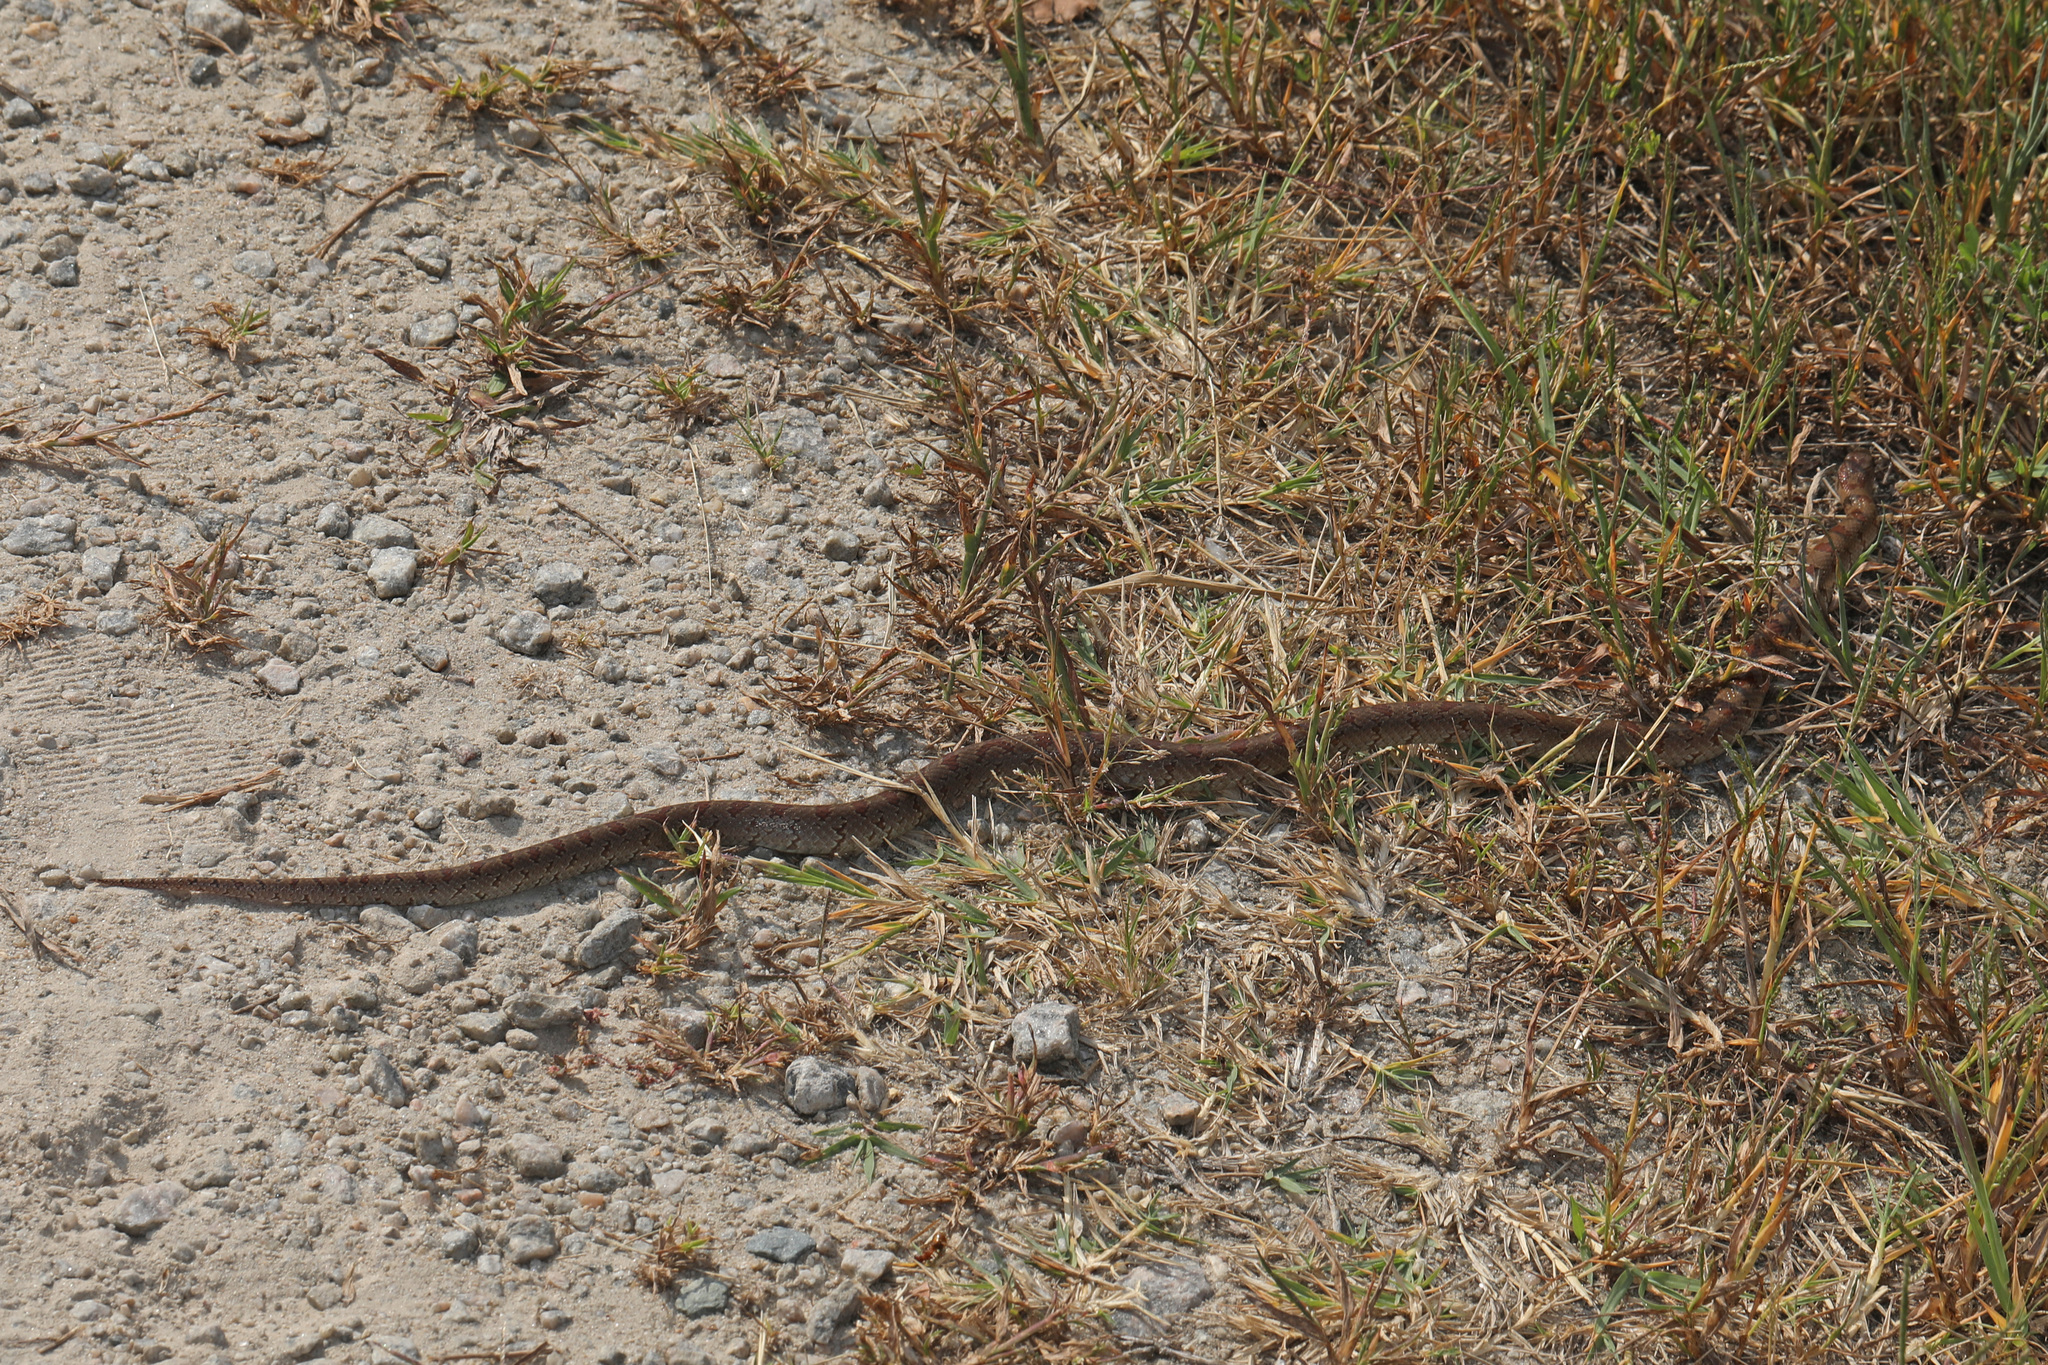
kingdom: Animalia
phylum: Chordata
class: Squamata
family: Colubridae
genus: Lampropeltis
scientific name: Lampropeltis rhombomaculata
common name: Mole kingsnake
